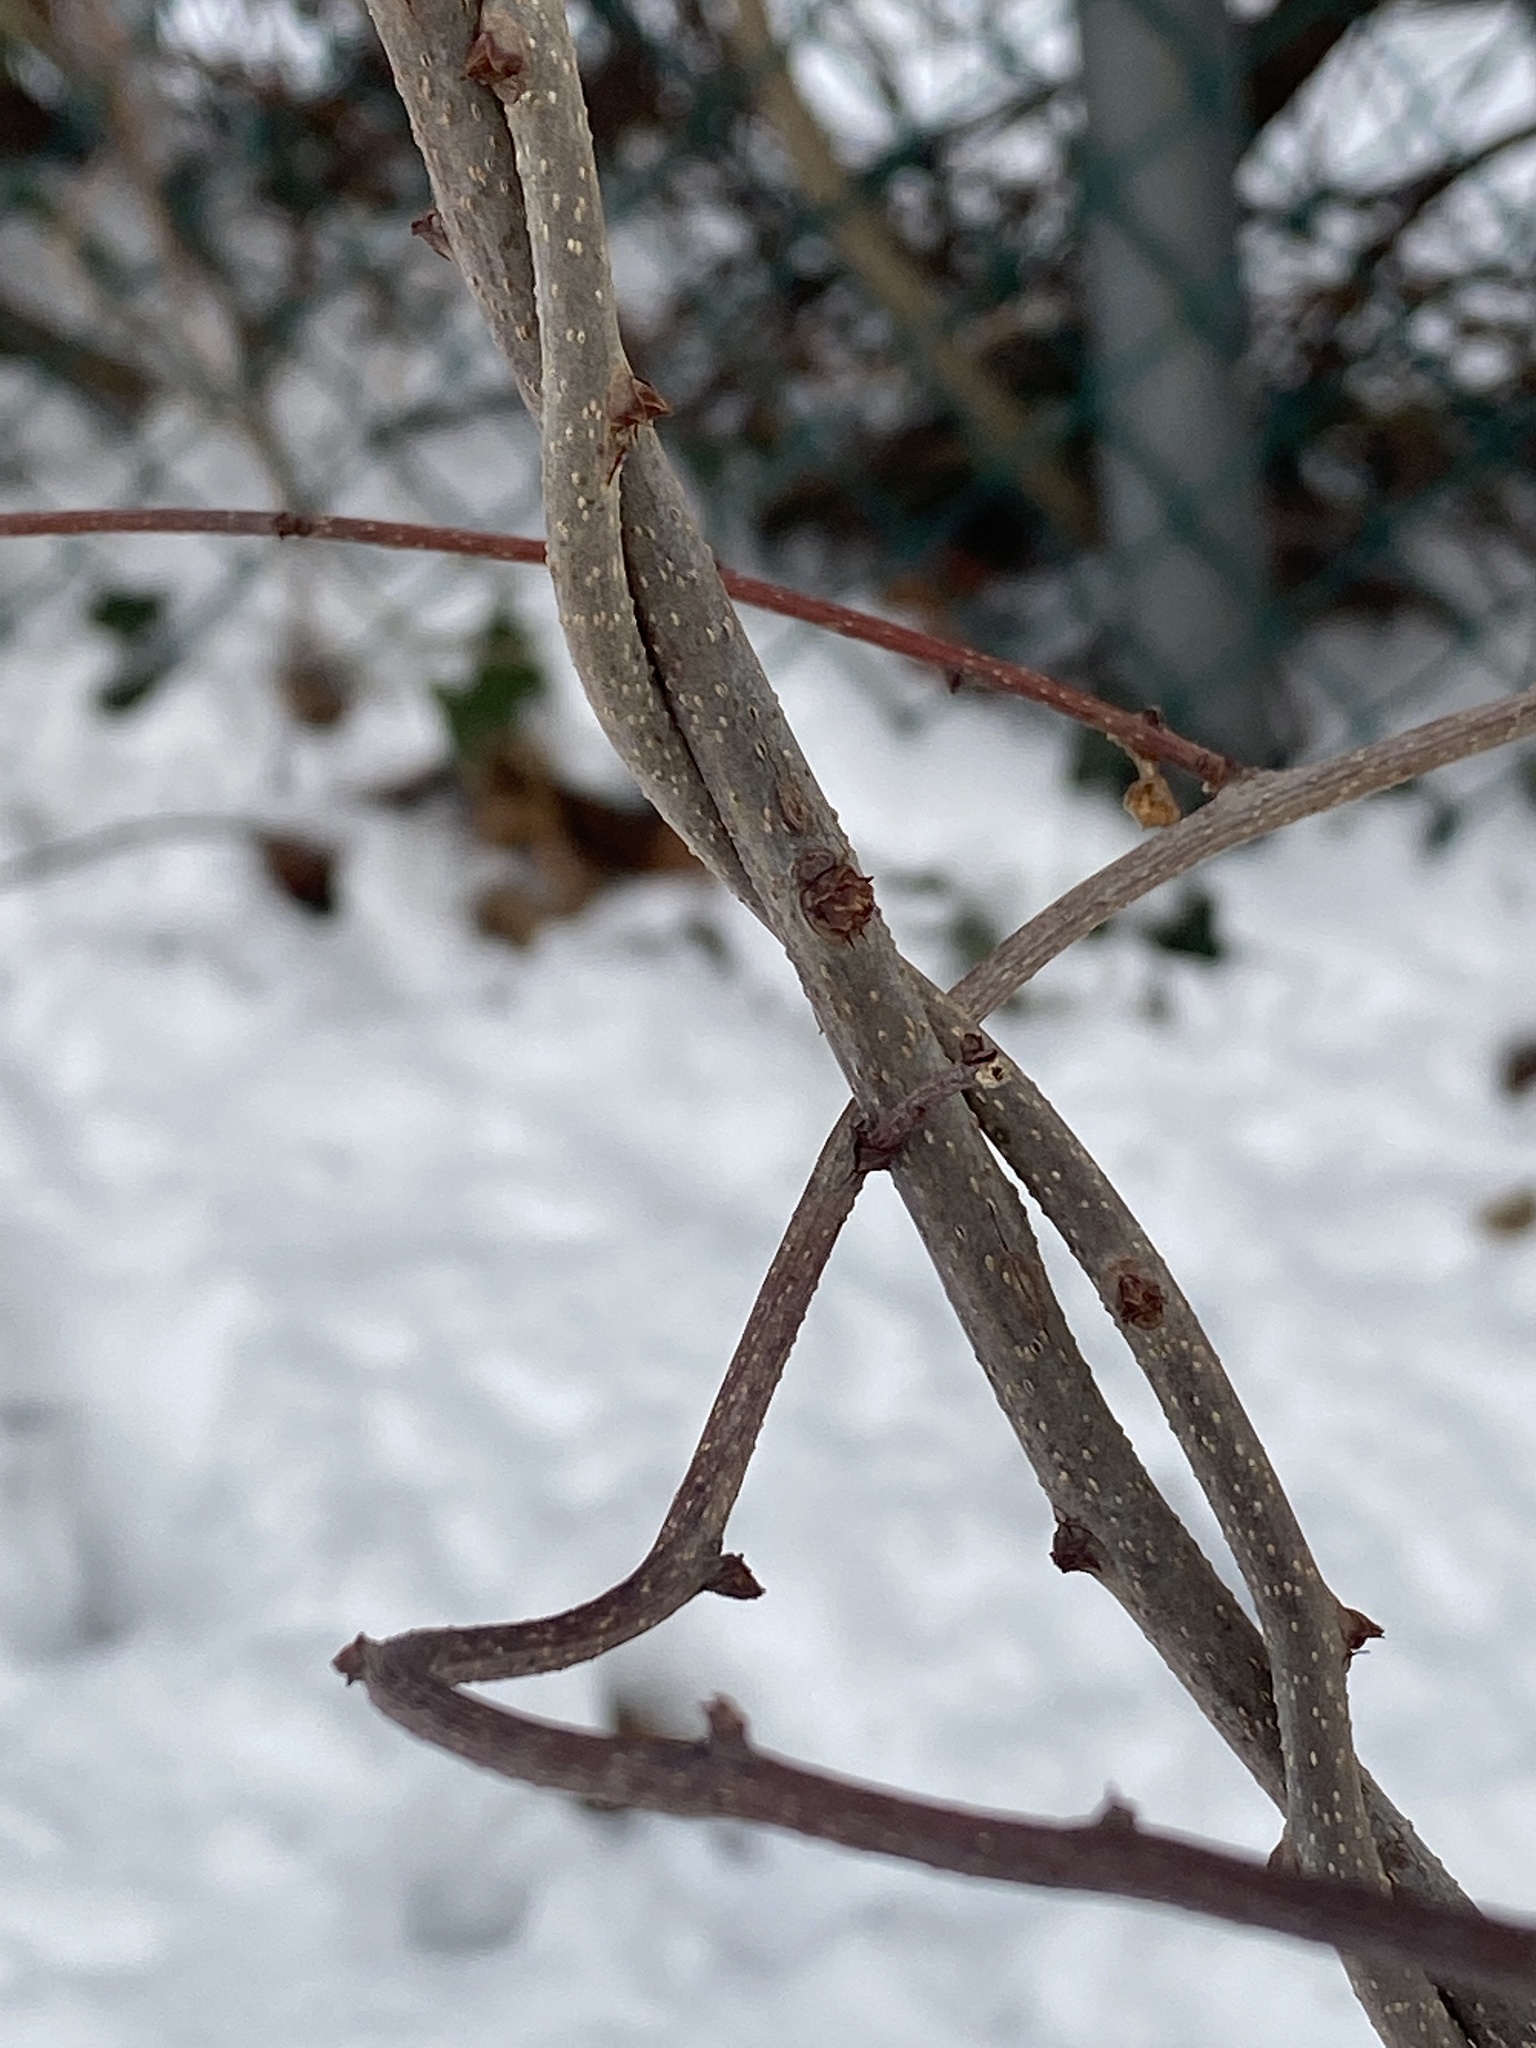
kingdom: Plantae
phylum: Tracheophyta
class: Magnoliopsida
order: Celastrales
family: Celastraceae
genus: Celastrus
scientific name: Celastrus orbiculatus
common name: Oriental bittersweet
